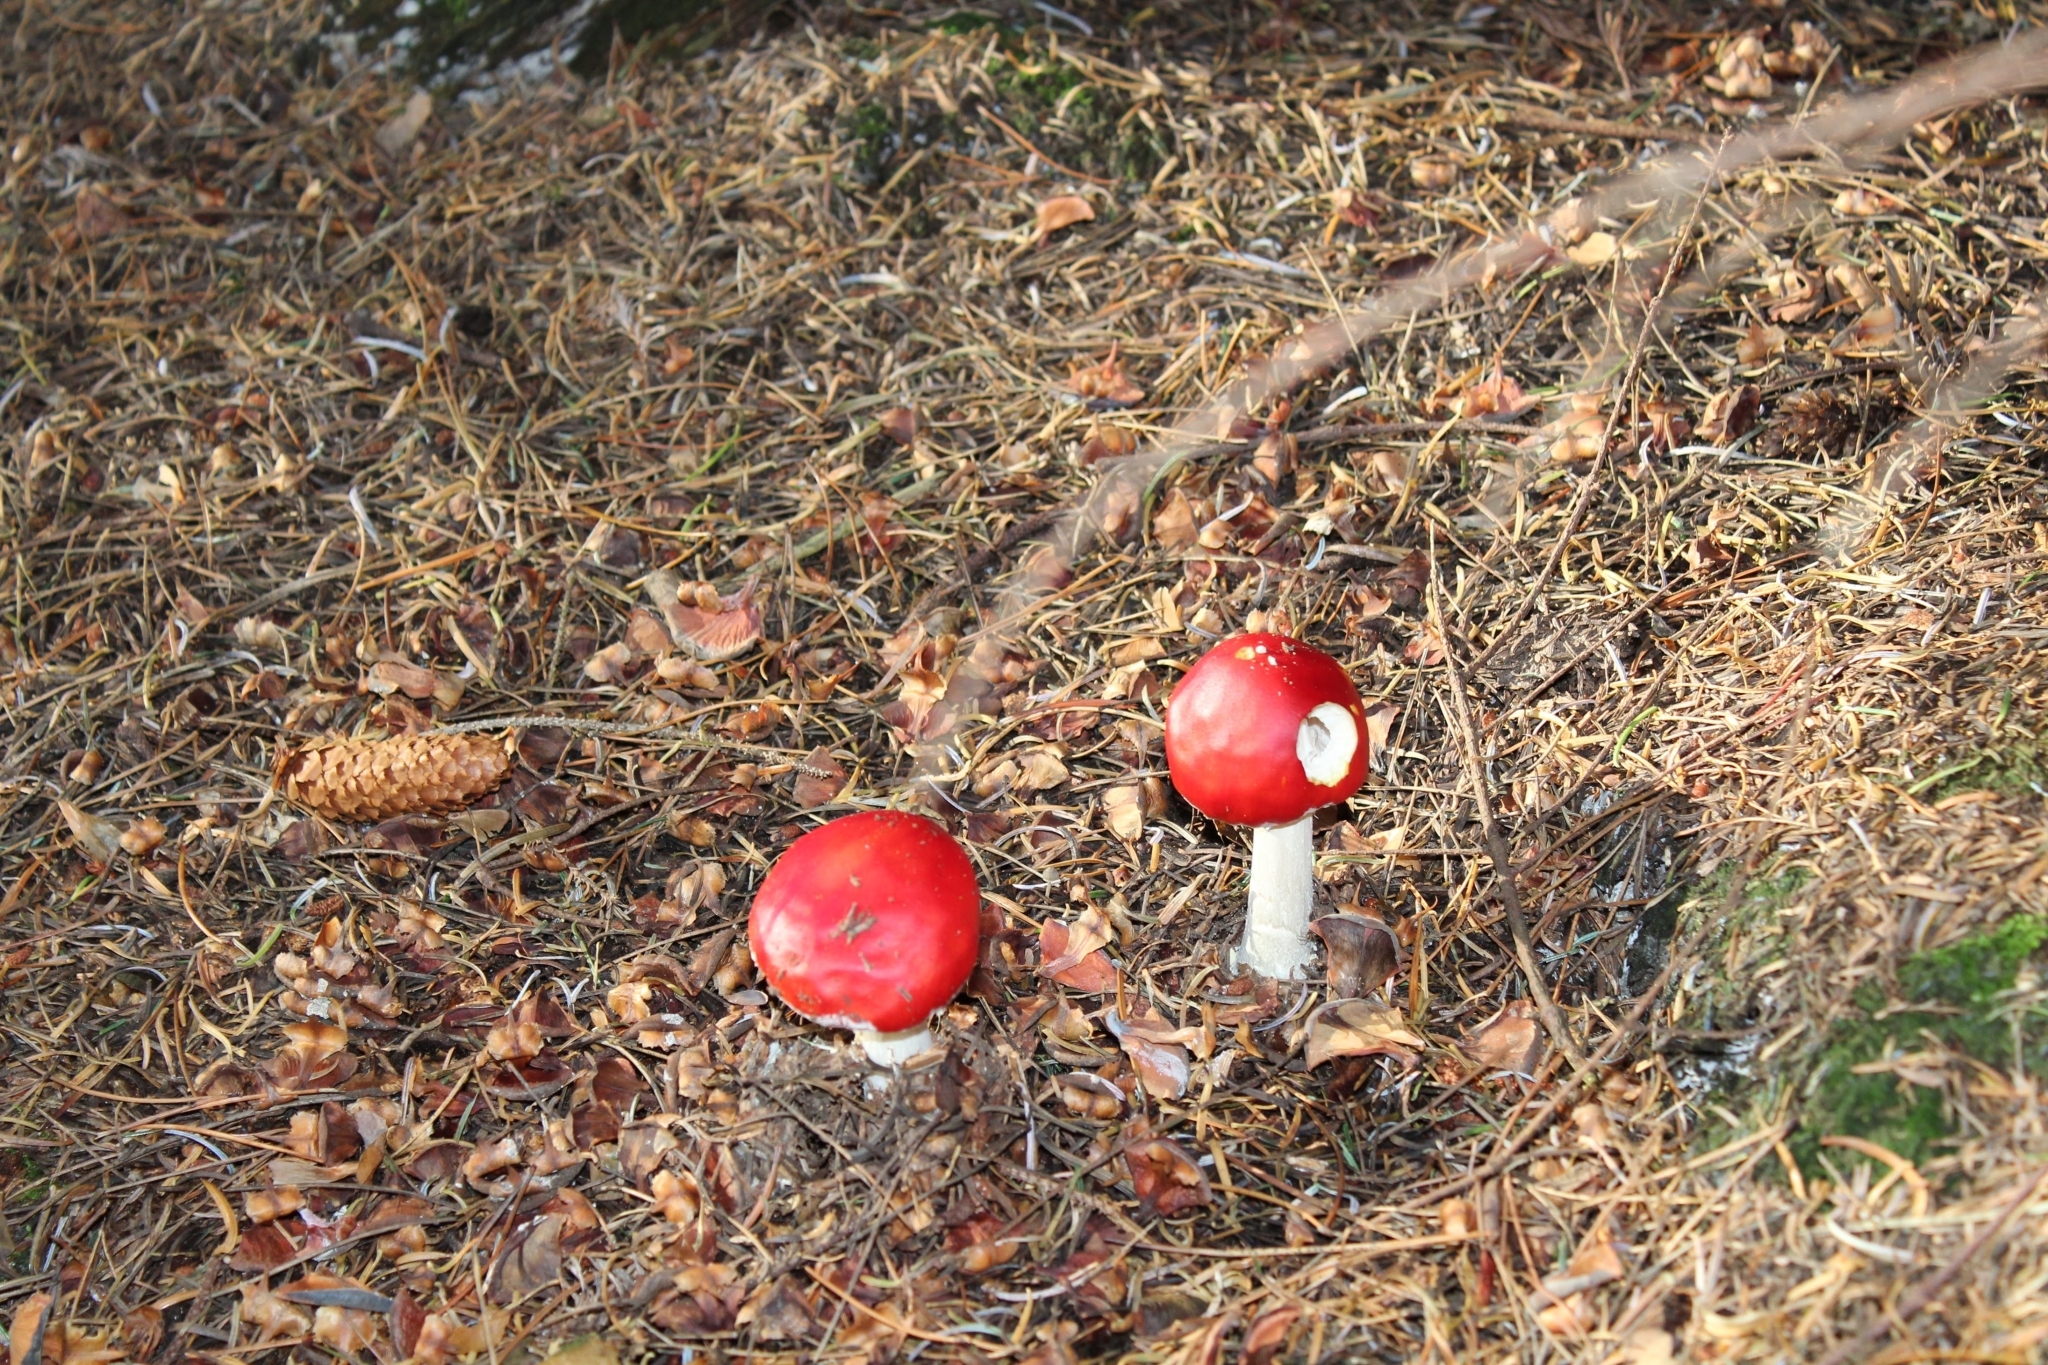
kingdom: Fungi
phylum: Basidiomycota
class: Agaricomycetes
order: Agaricales
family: Amanitaceae
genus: Amanita
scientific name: Amanita muscaria
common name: Fly agaric
